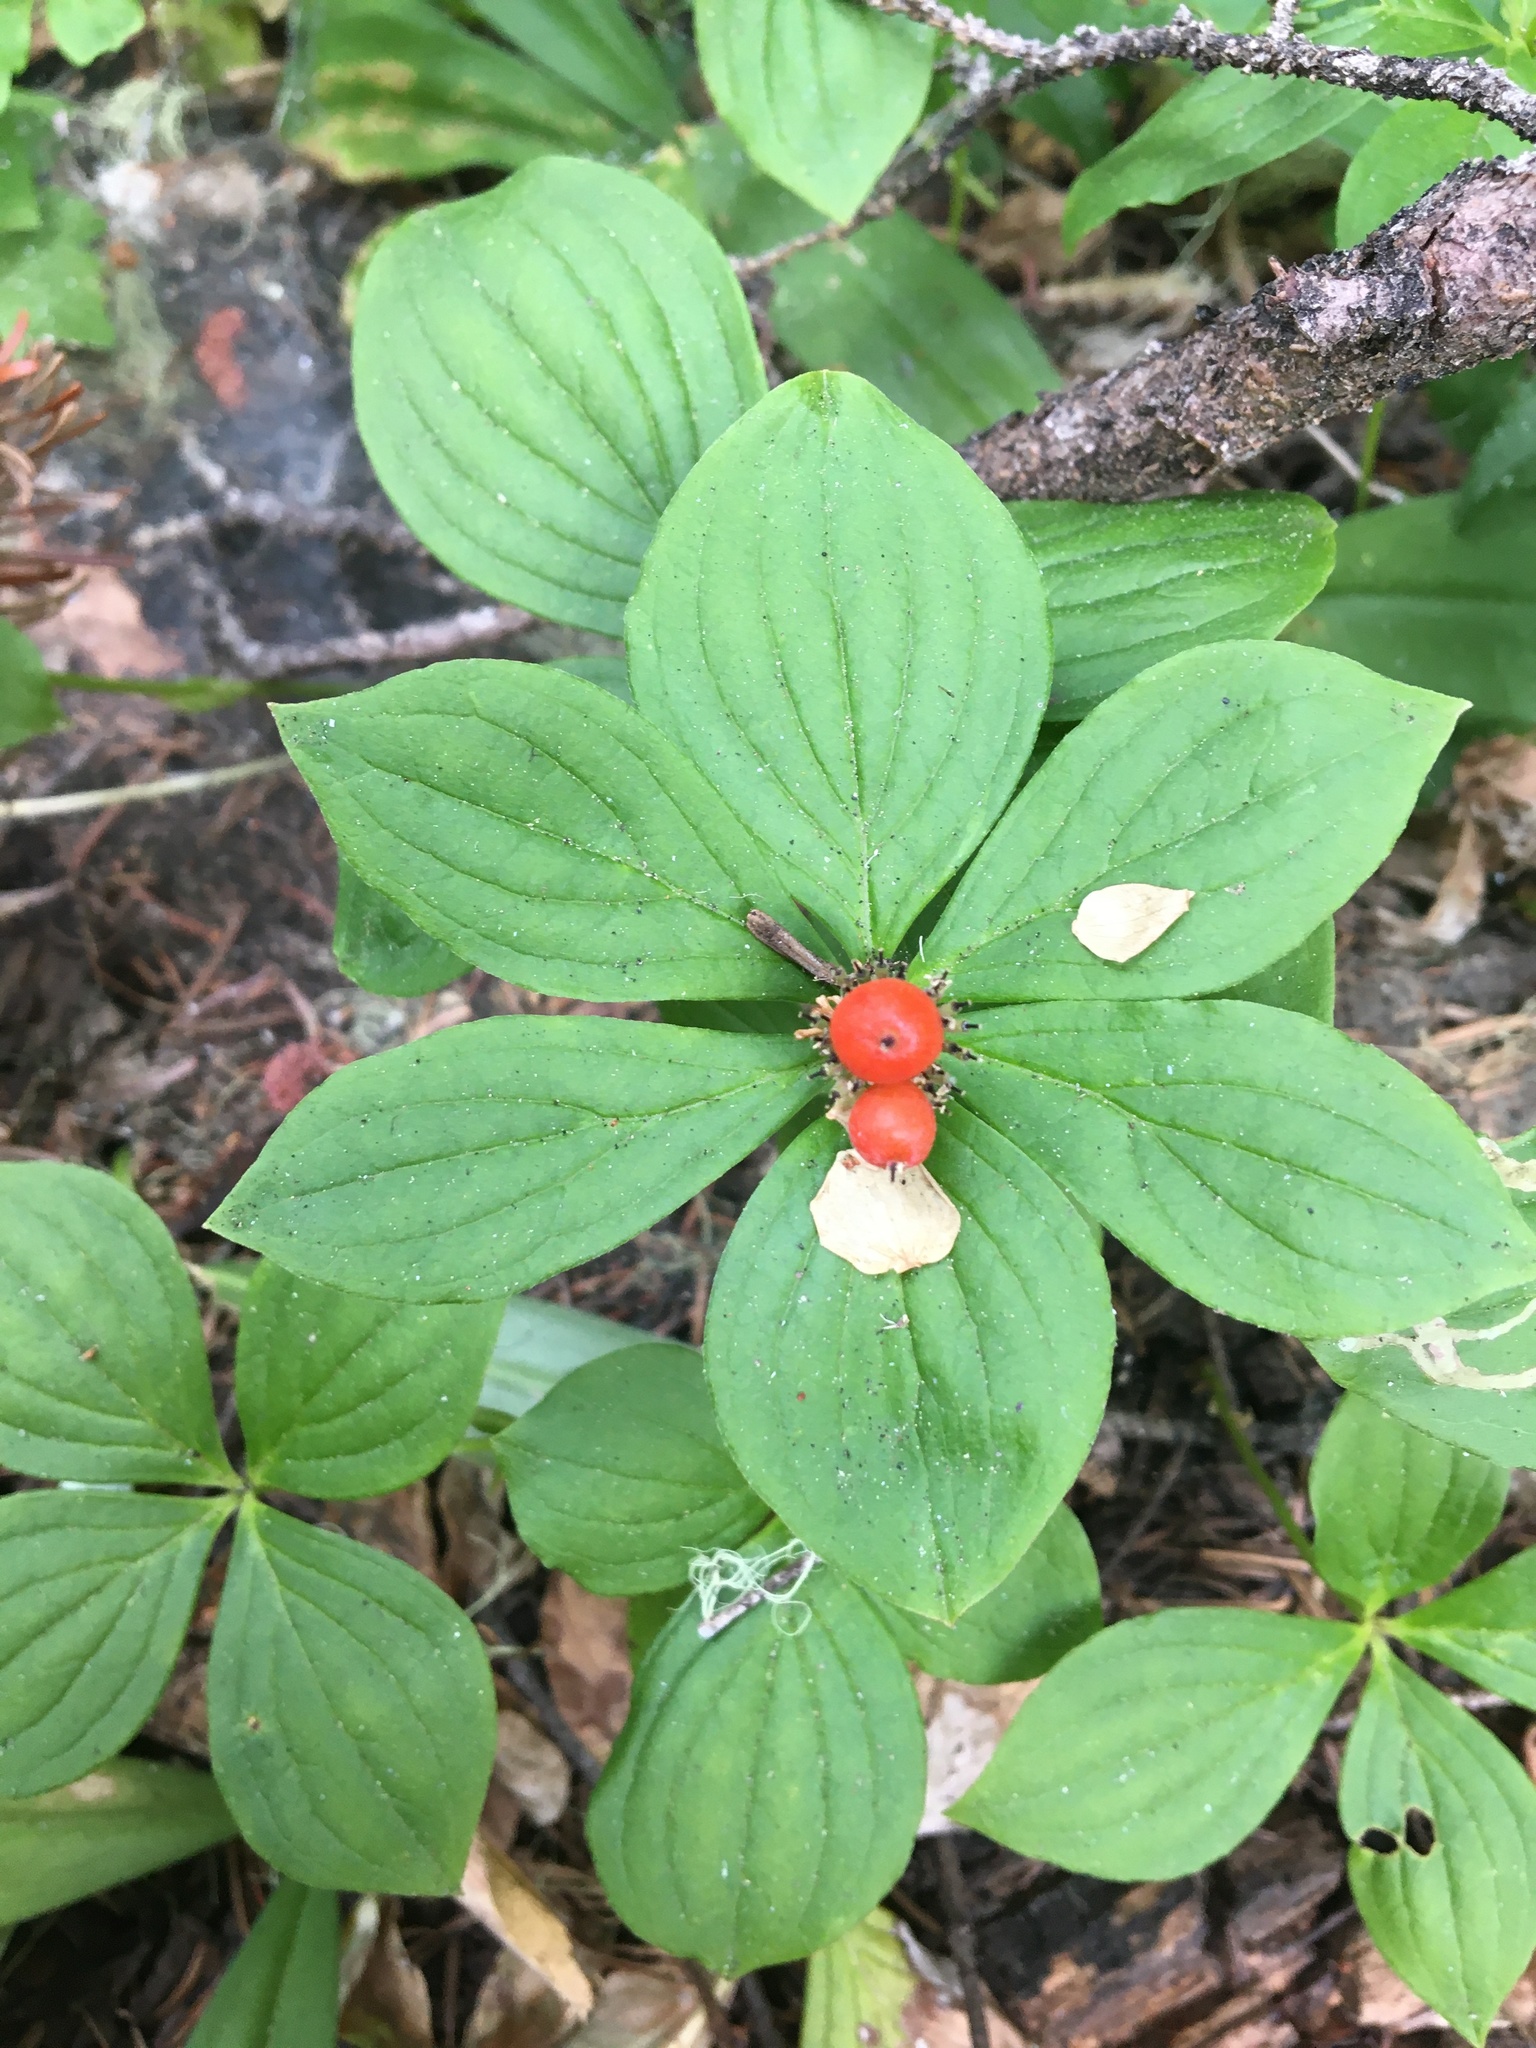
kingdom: Plantae
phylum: Tracheophyta
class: Magnoliopsida
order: Cornales
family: Cornaceae
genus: Cornus
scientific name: Cornus unalaschkensis
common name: Alaska bunchberry
